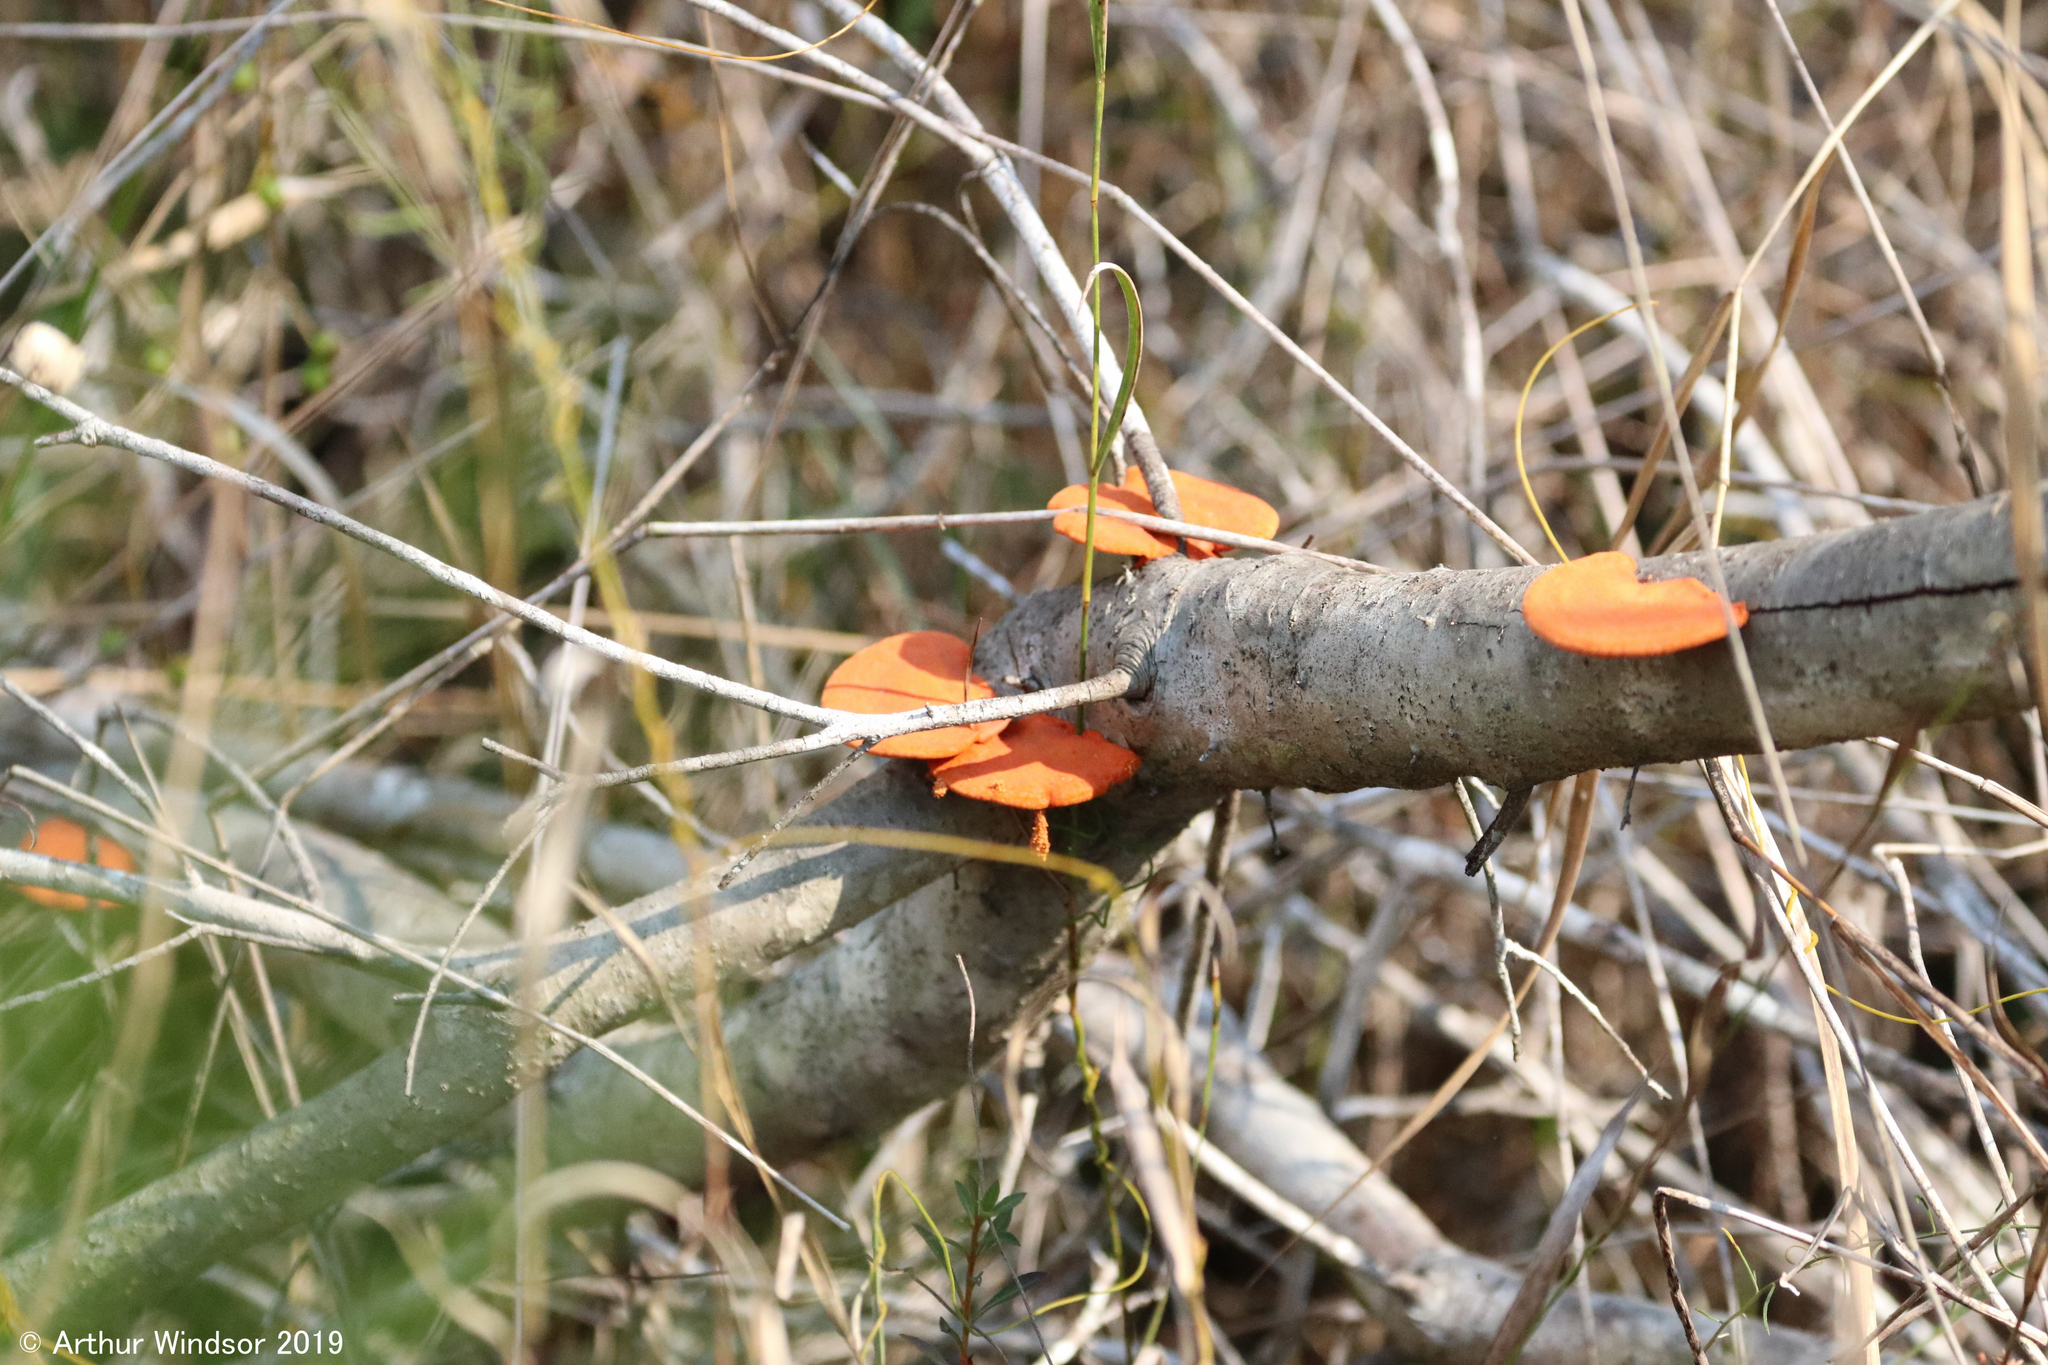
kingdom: Fungi
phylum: Basidiomycota
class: Agaricomycetes
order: Polyporales
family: Polyporaceae
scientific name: Polyporaceae
